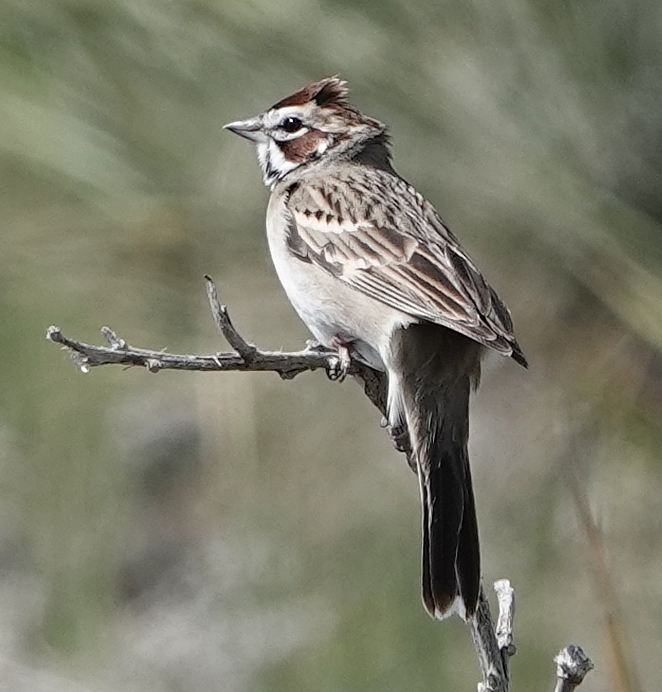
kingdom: Animalia
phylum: Chordata
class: Aves
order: Passeriformes
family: Passerellidae
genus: Chondestes
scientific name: Chondestes grammacus
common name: Lark sparrow
